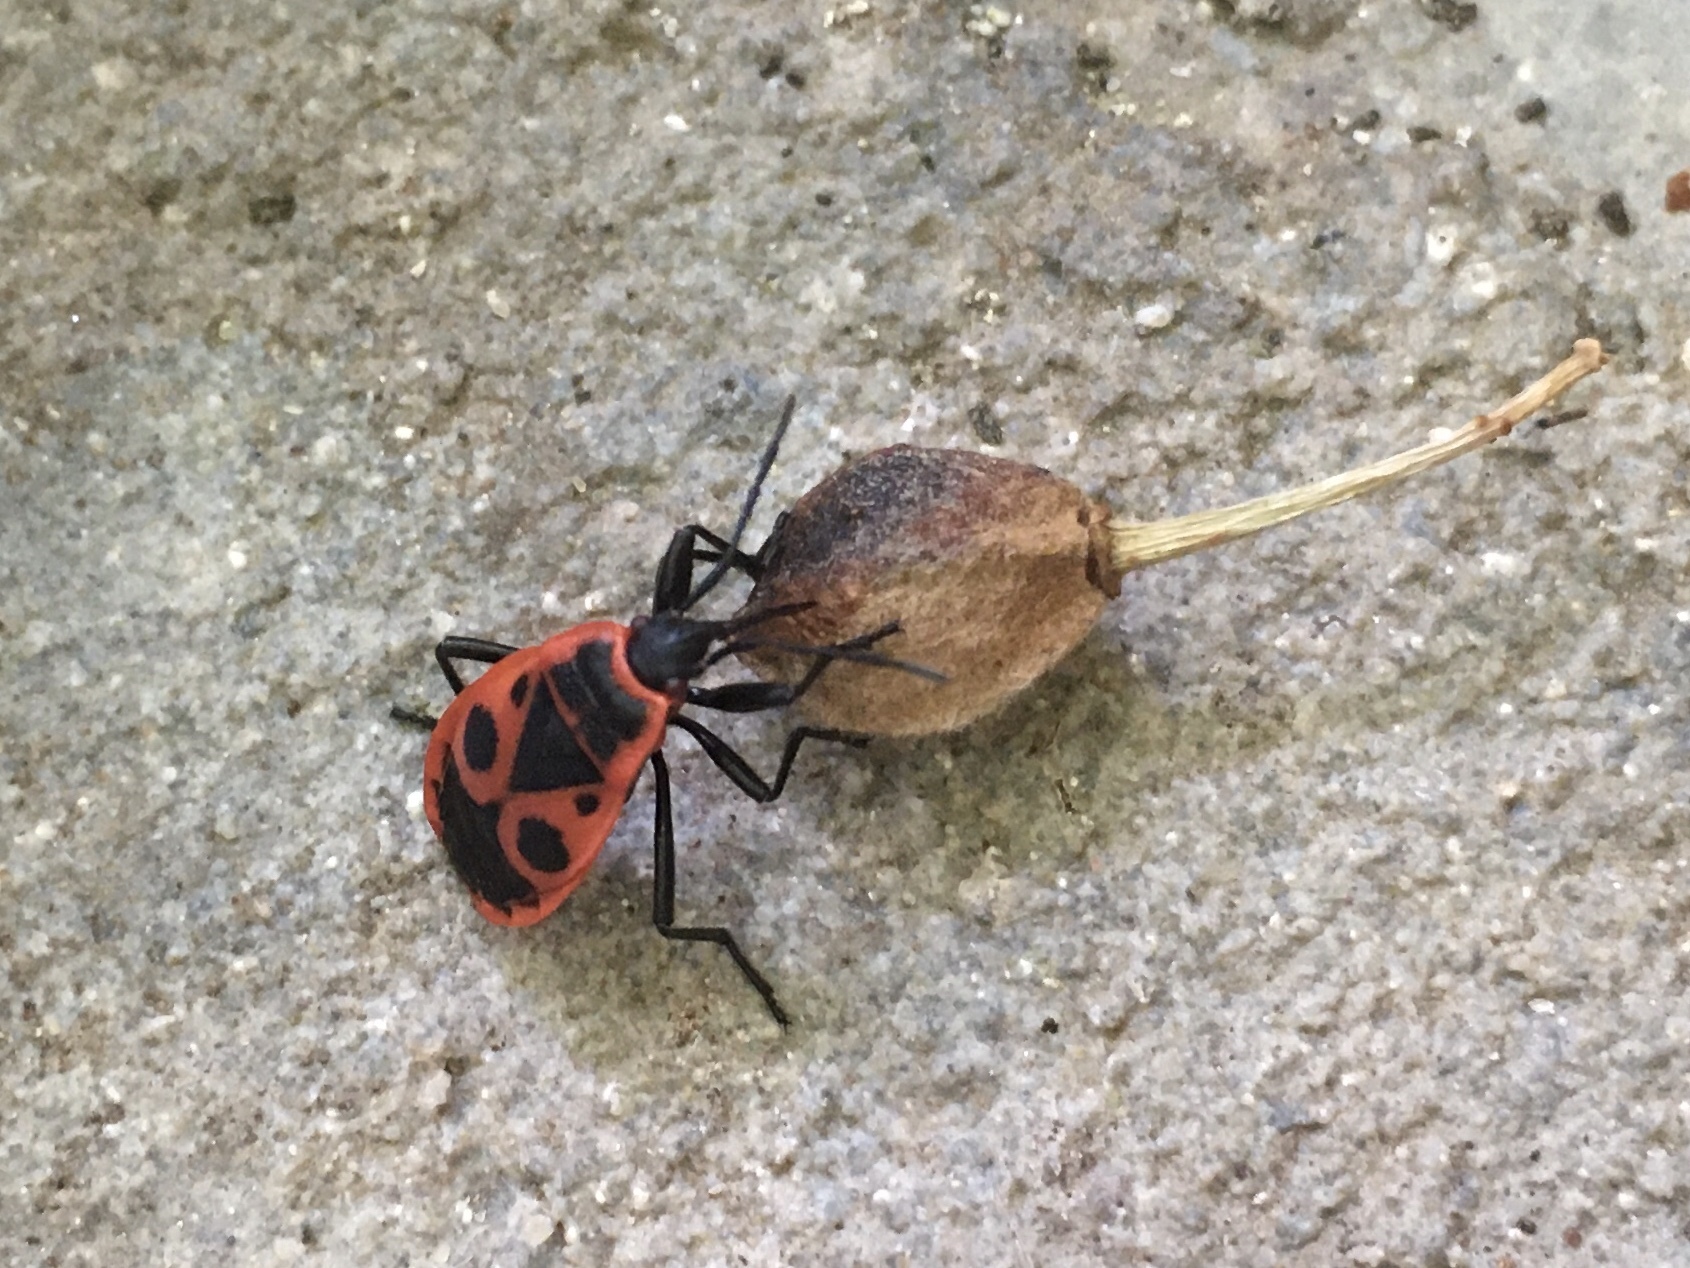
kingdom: Animalia
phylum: Arthropoda
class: Insecta
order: Hemiptera
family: Pyrrhocoridae
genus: Pyrrhocoris
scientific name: Pyrrhocoris apterus
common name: Firebug
